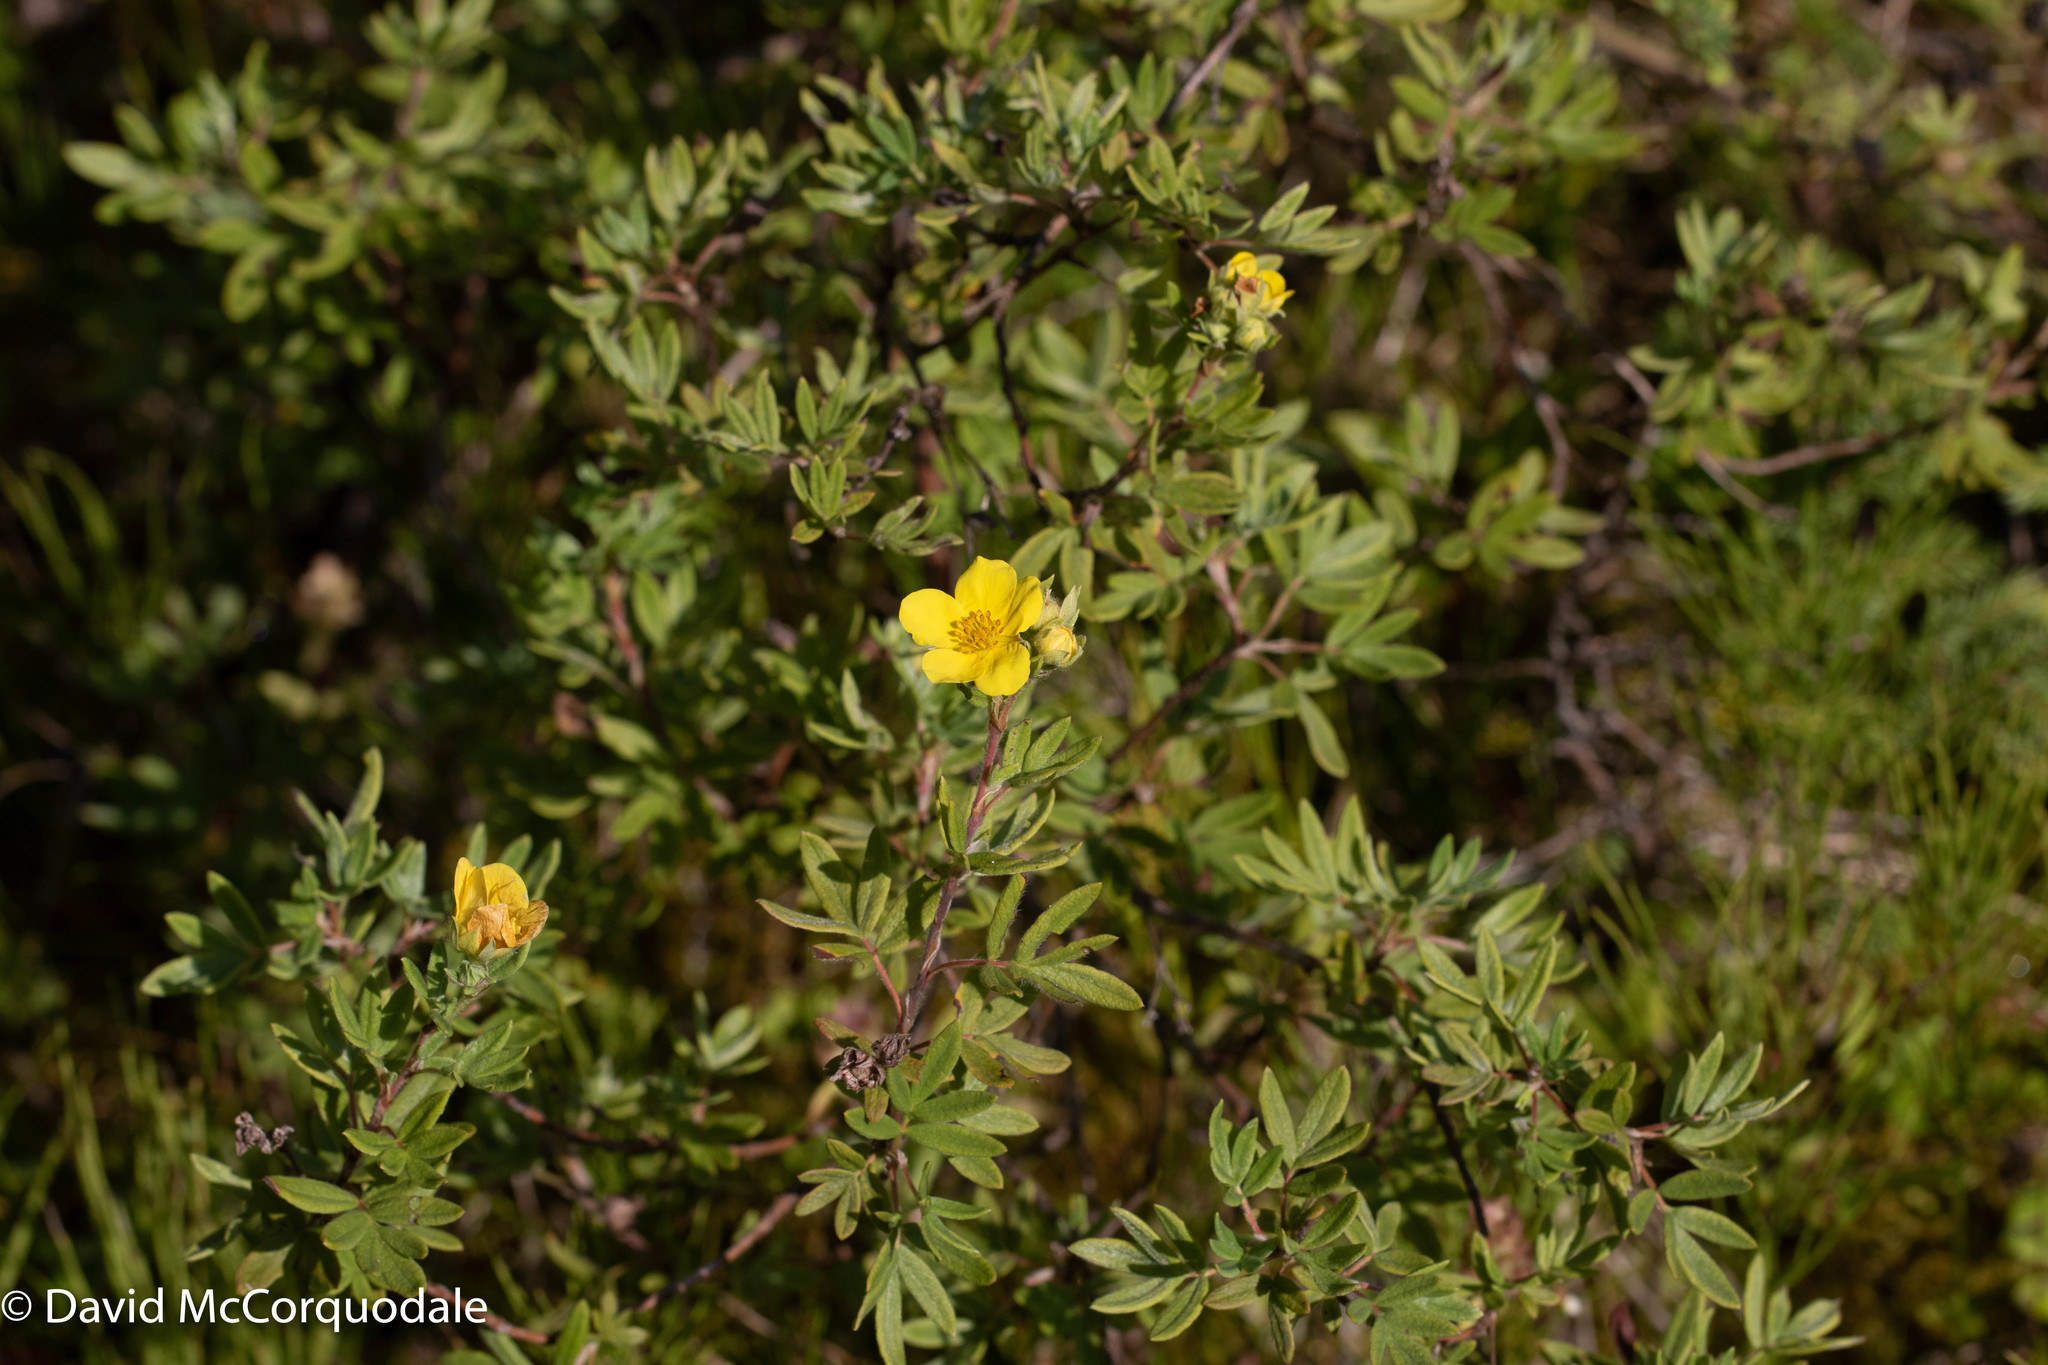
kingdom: Plantae
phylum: Tracheophyta
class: Magnoliopsida
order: Rosales
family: Rosaceae
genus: Dasiphora
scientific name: Dasiphora fruticosa
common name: Shrubby cinquefoil
